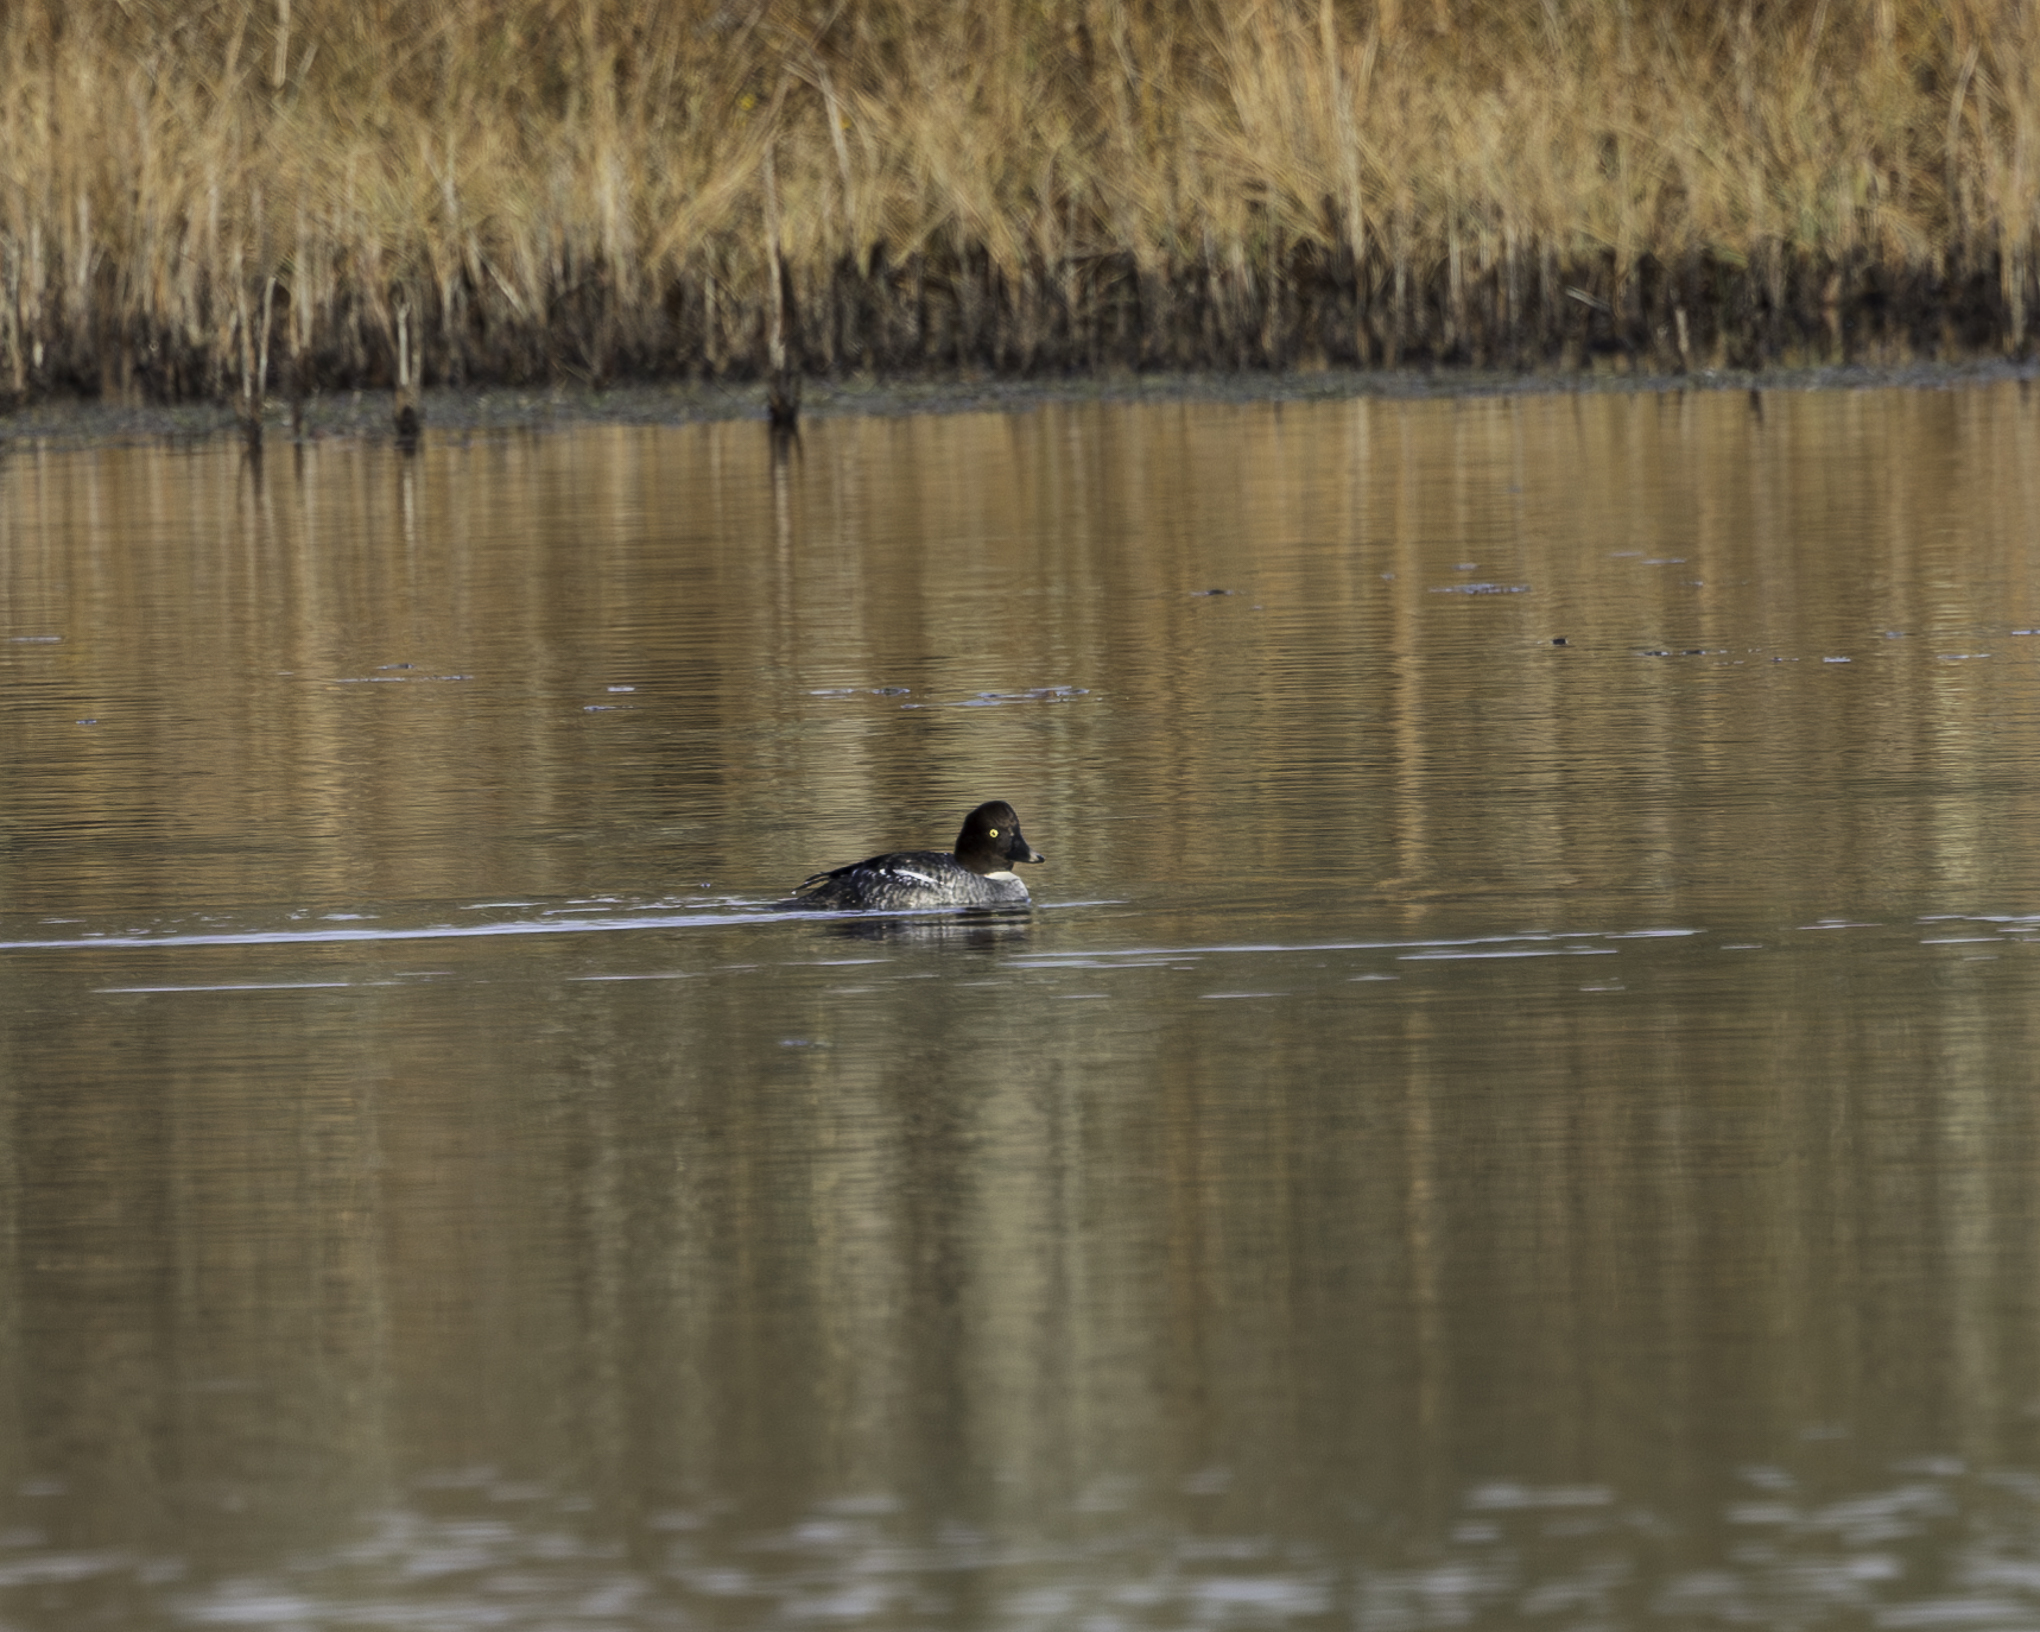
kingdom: Animalia
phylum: Chordata
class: Aves
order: Anseriformes
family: Anatidae
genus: Bucephala
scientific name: Bucephala clangula
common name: Common goldeneye
